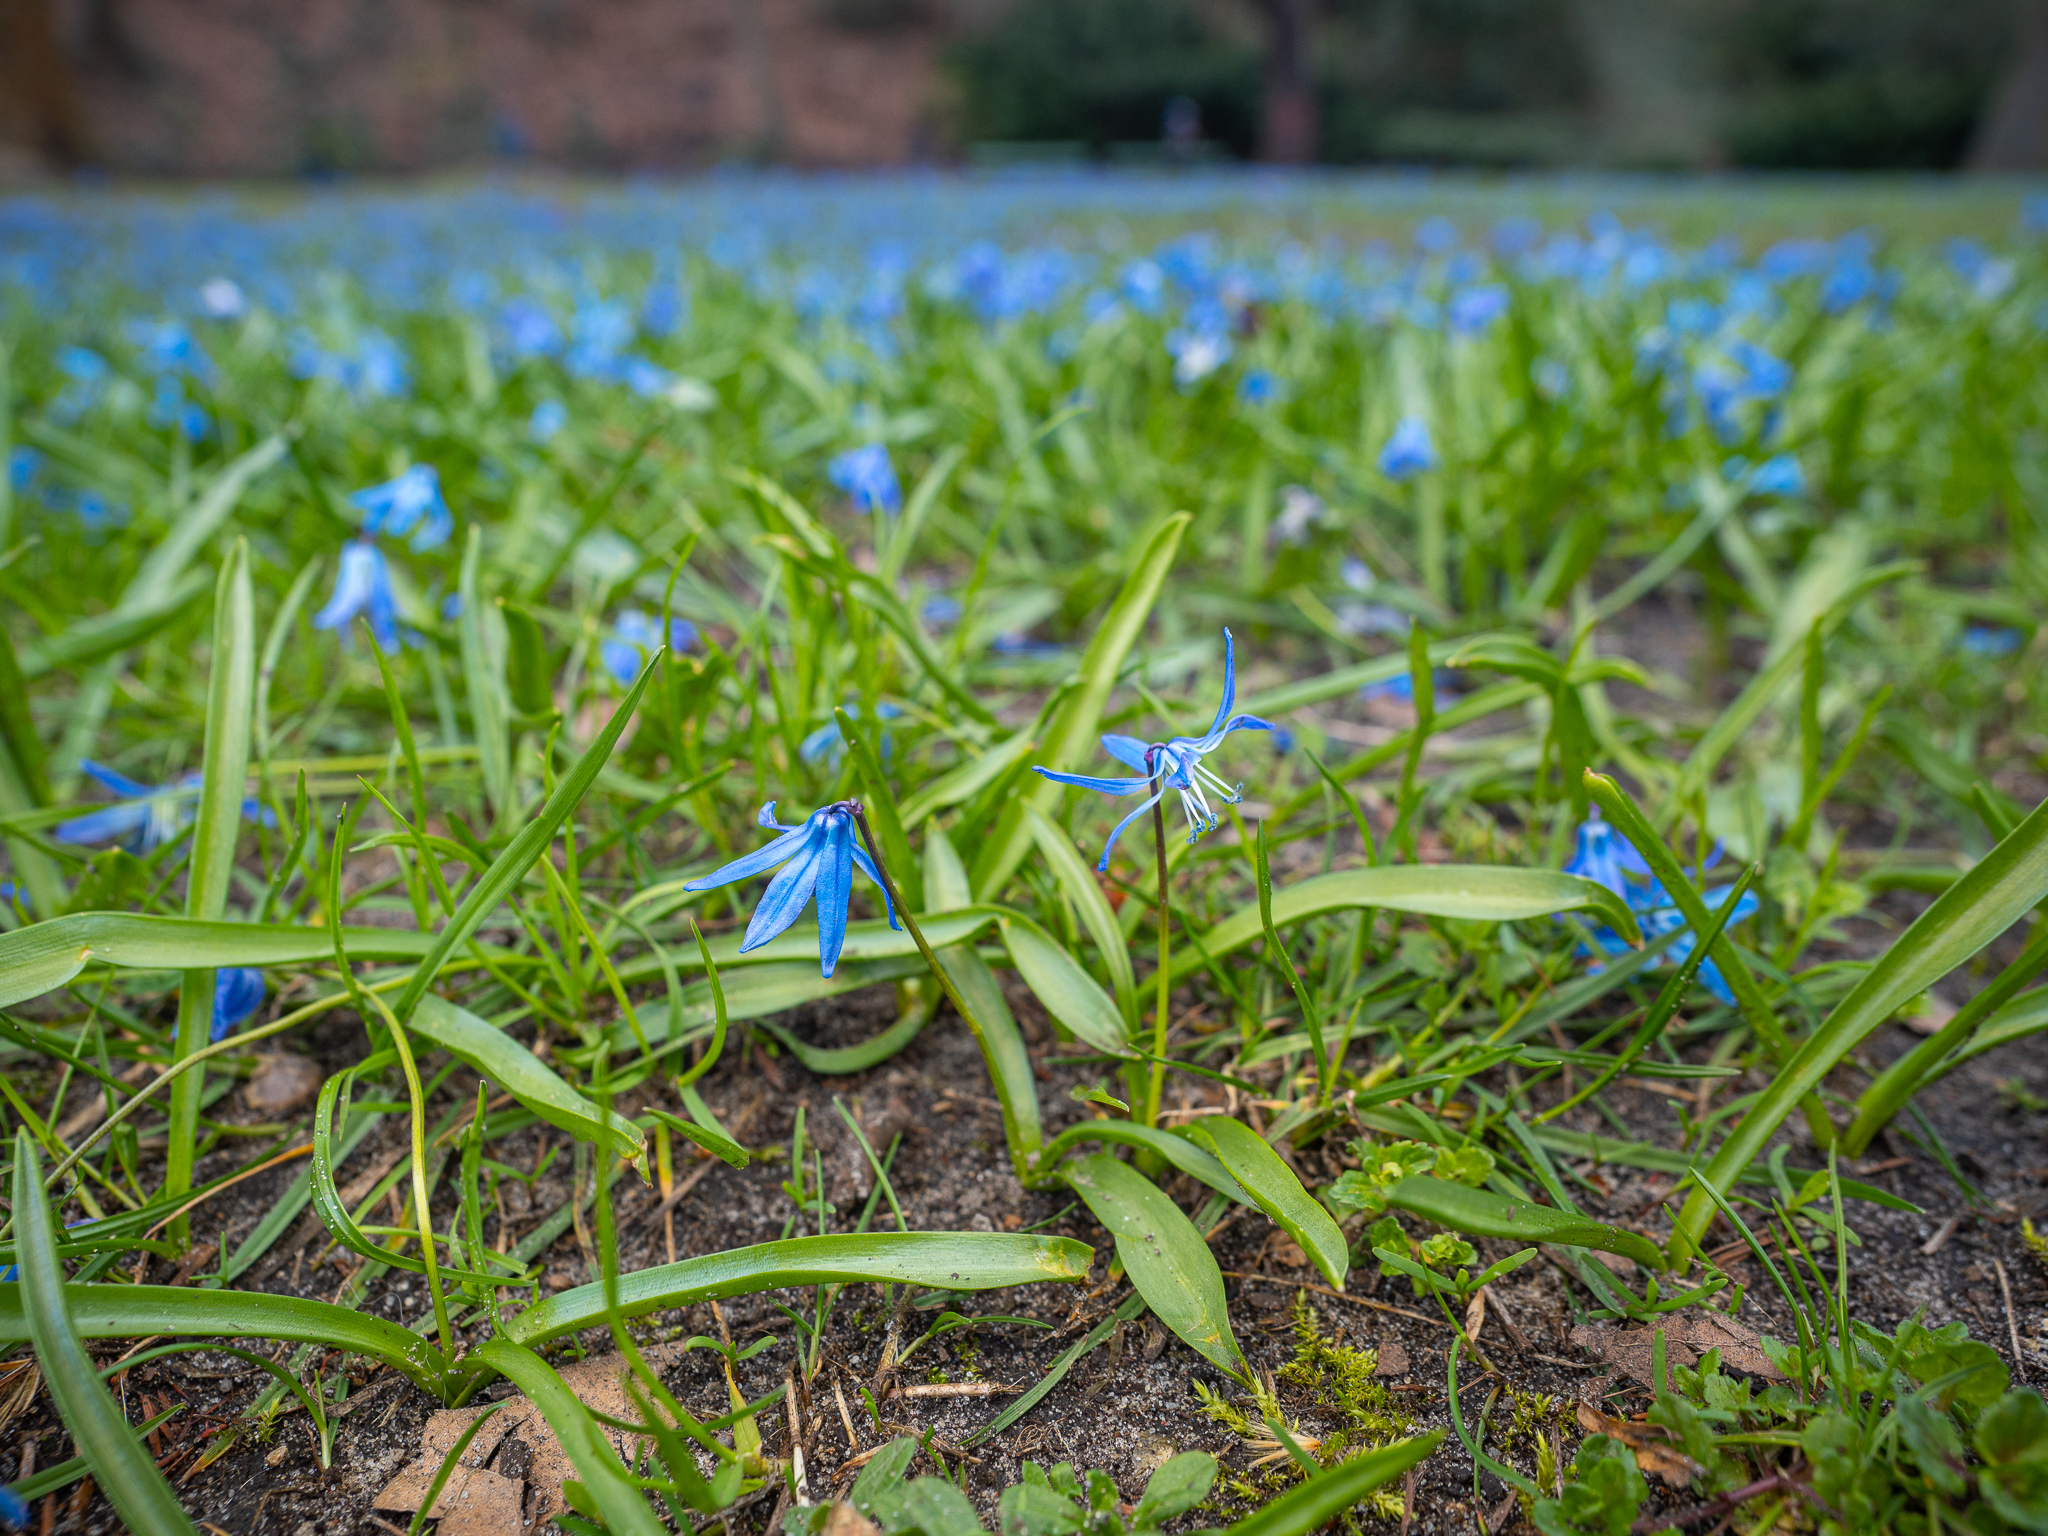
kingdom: Plantae
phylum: Tracheophyta
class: Liliopsida
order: Asparagales
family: Asparagaceae
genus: Scilla
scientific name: Scilla siberica
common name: Siberian squill
